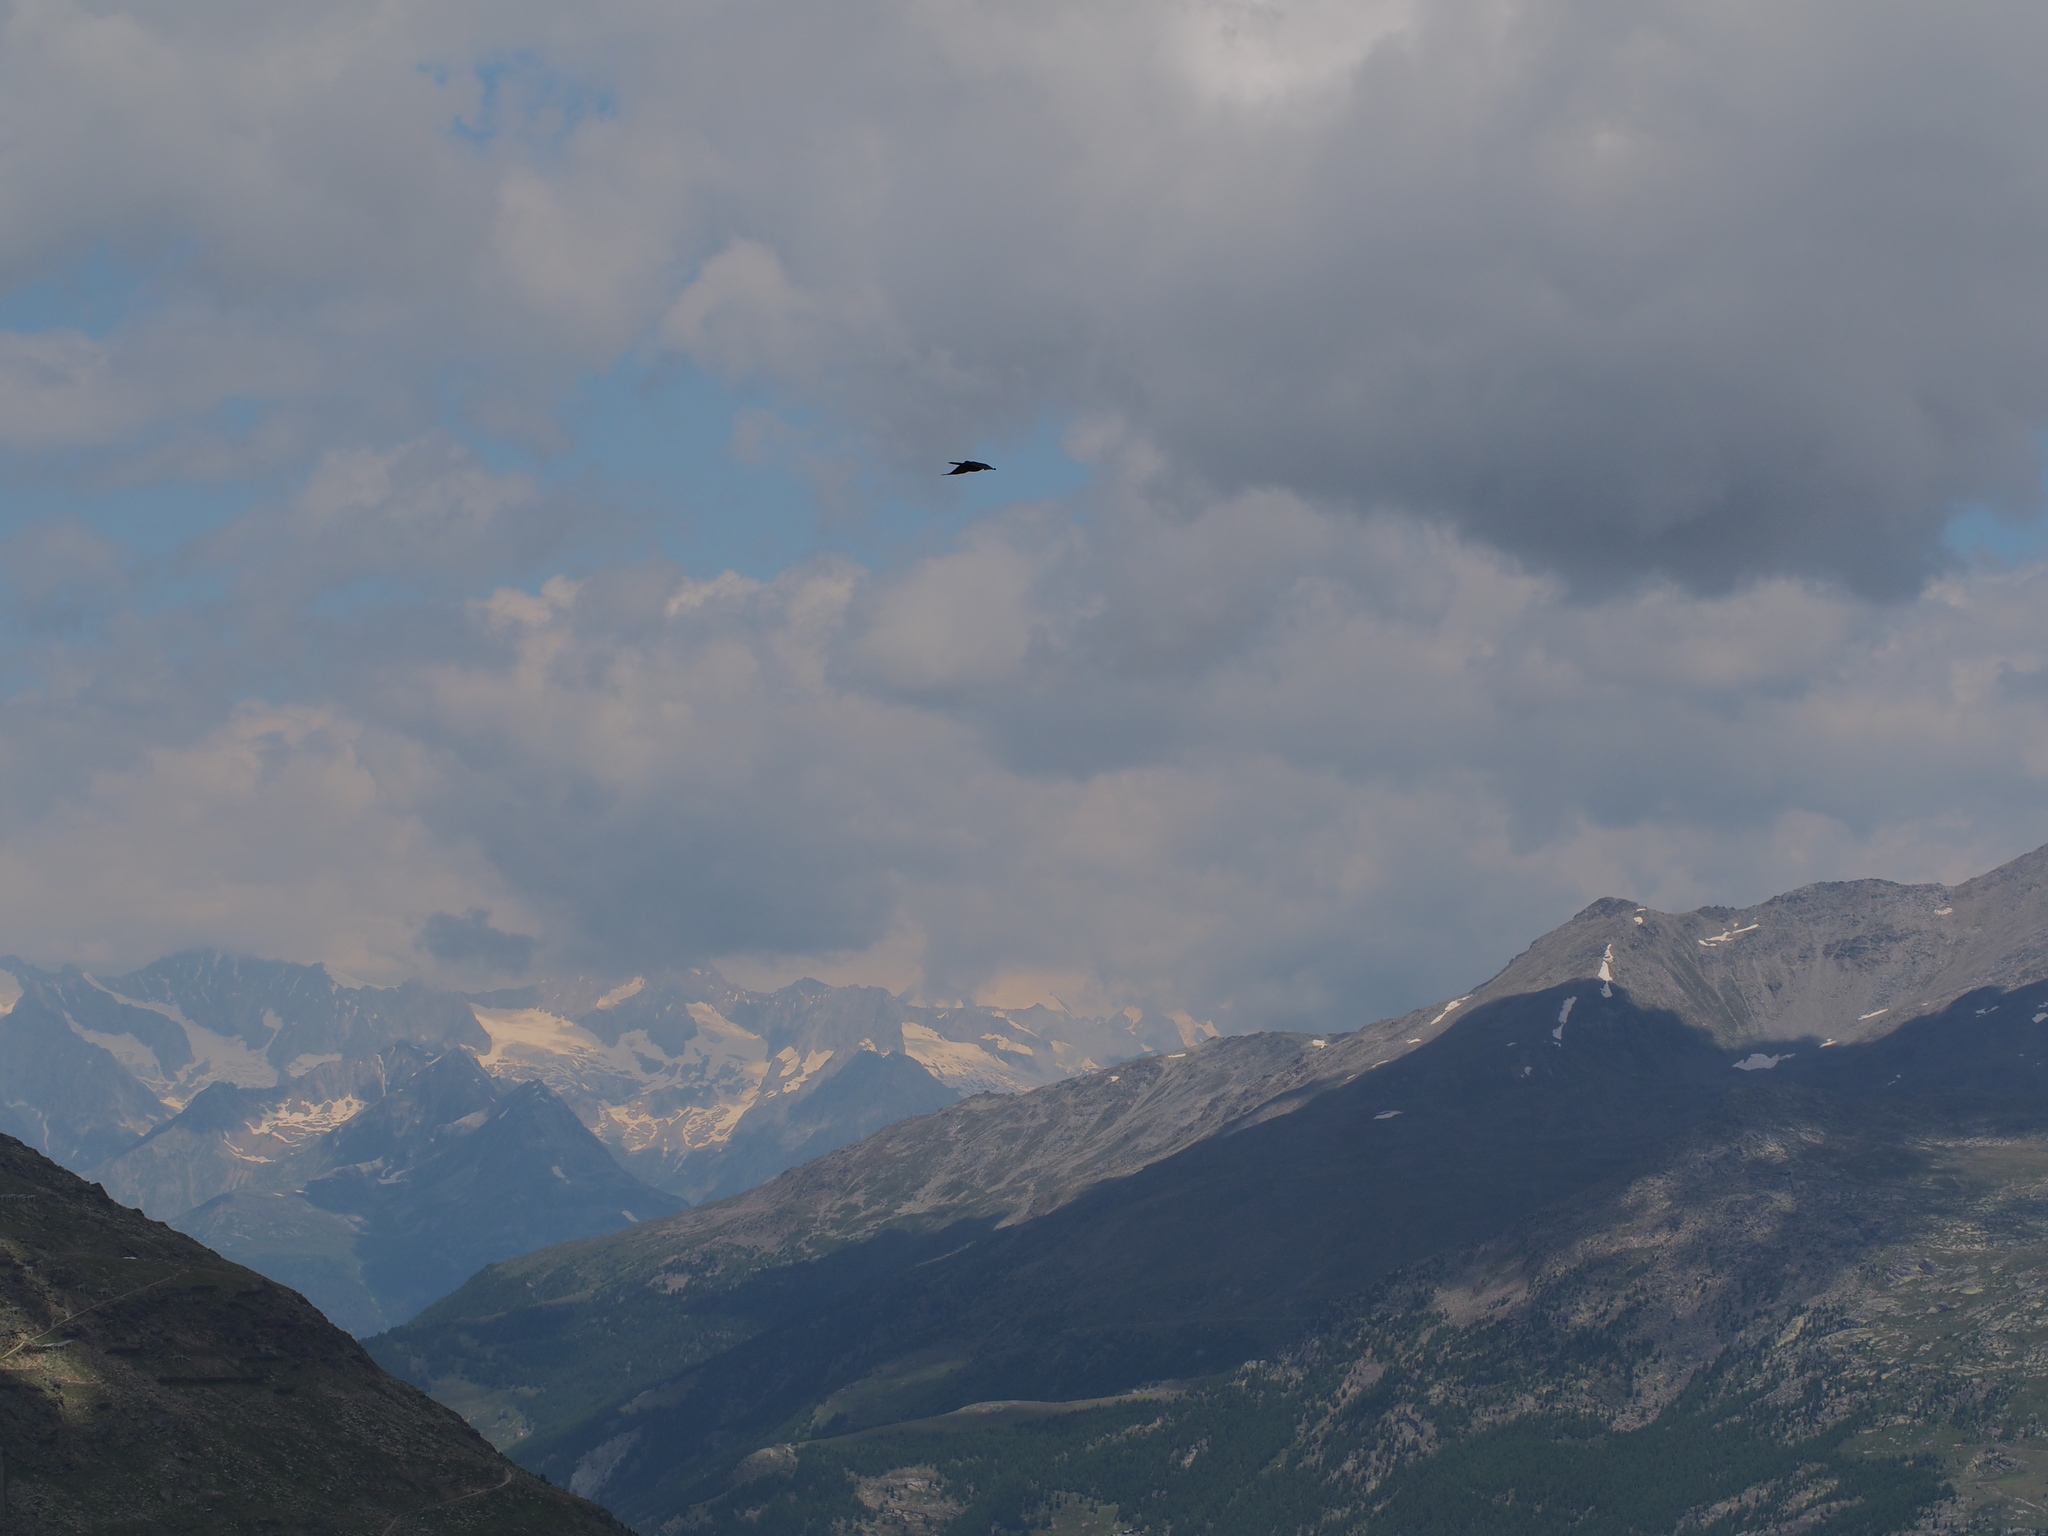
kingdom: Animalia
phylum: Chordata
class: Aves
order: Passeriformes
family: Corvidae
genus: Corvus
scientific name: Corvus corax
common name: Common raven
